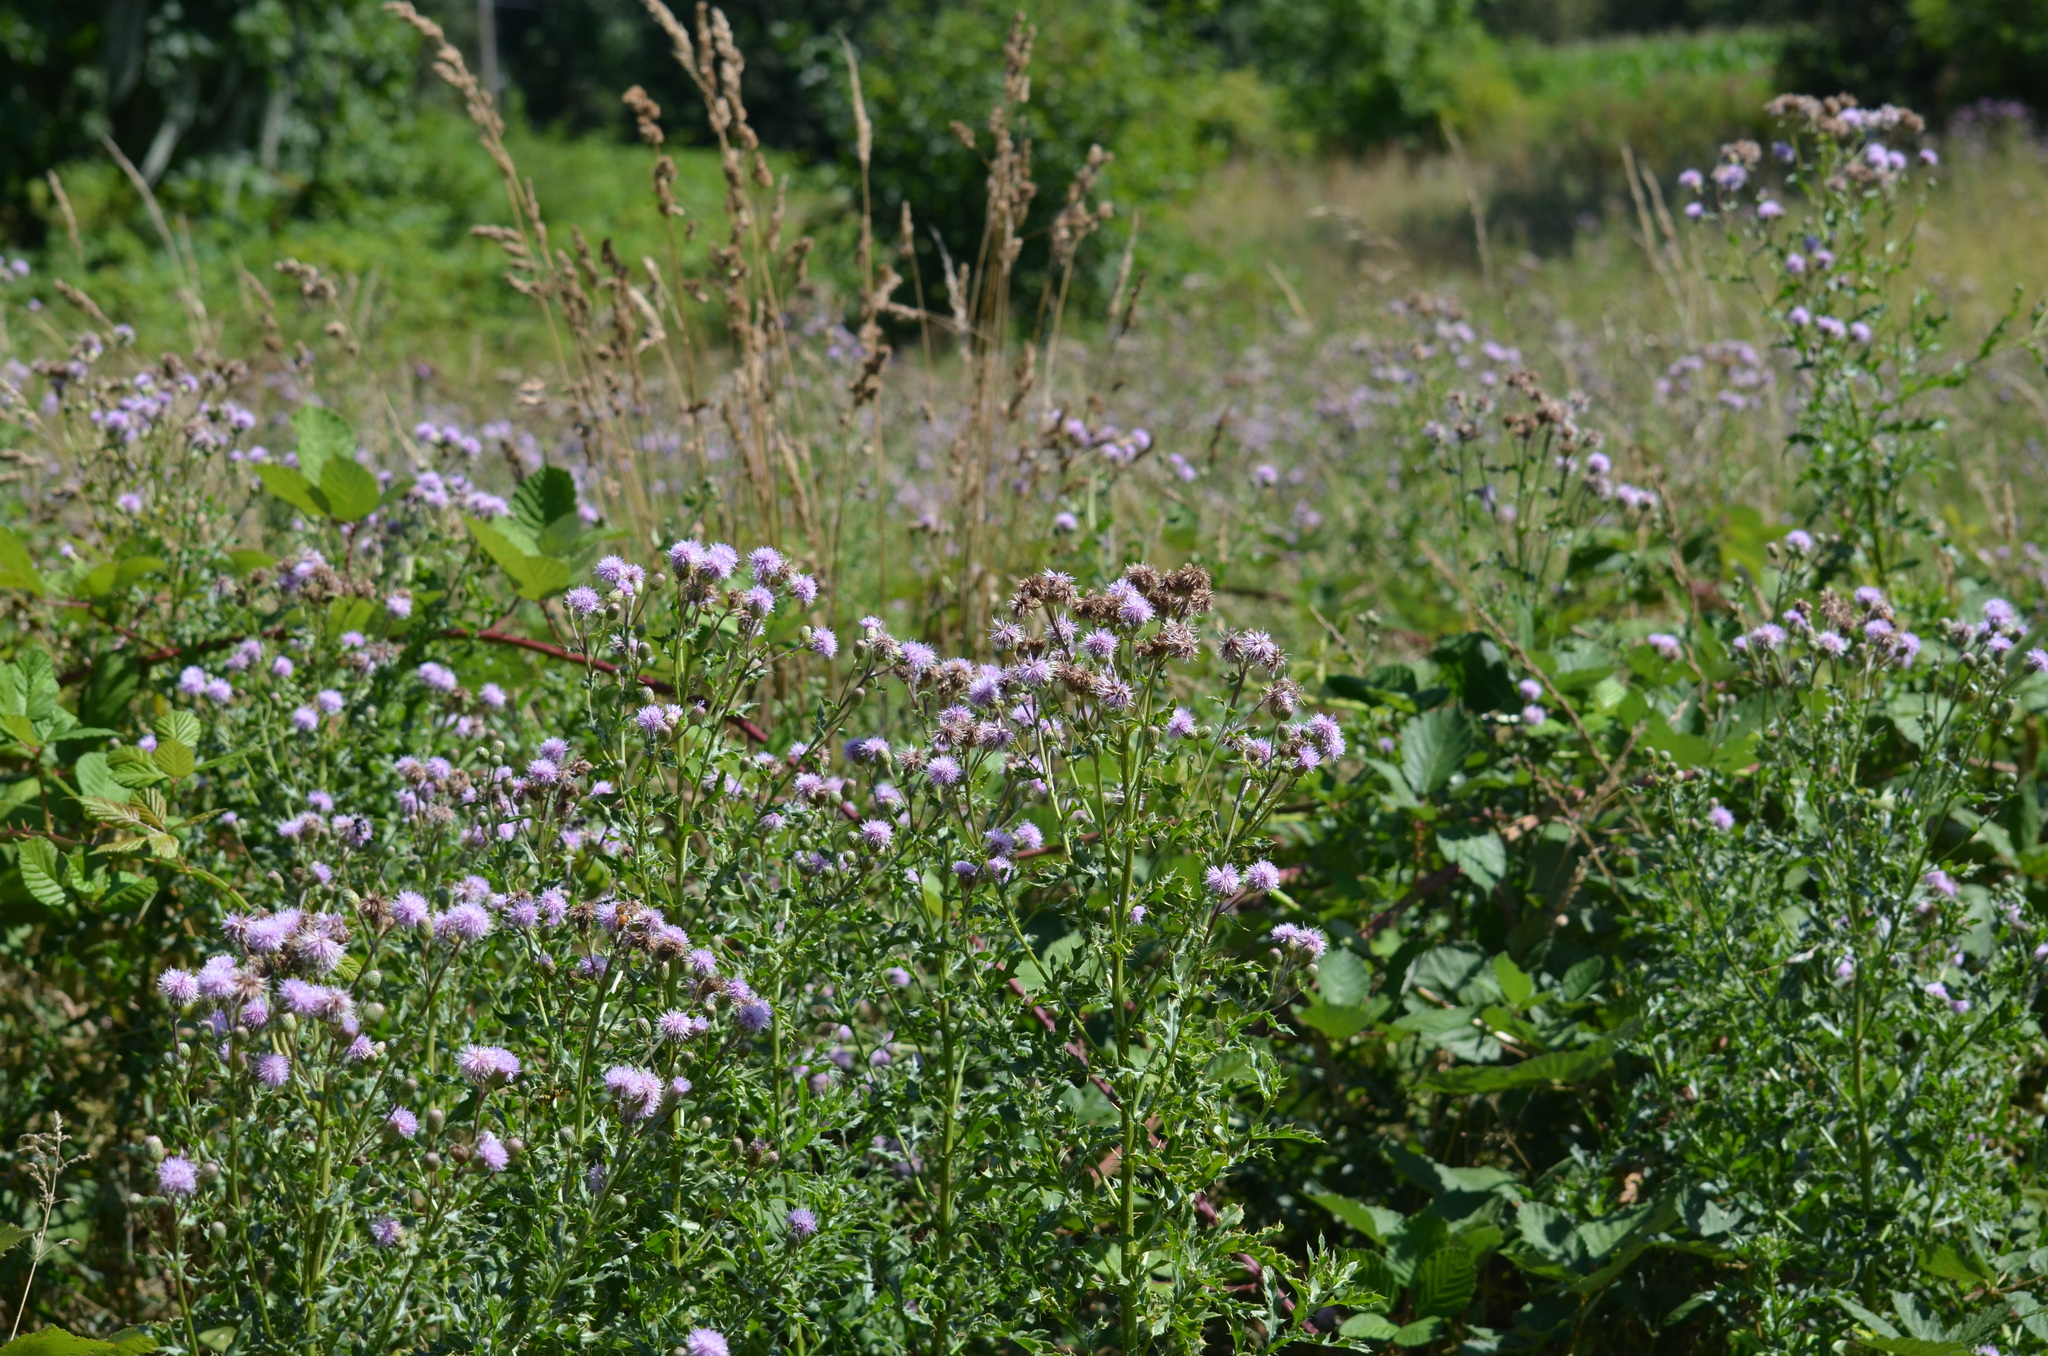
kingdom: Plantae
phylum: Tracheophyta
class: Magnoliopsida
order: Asterales
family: Asteraceae
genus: Cirsium
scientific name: Cirsium arvense
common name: Creeping thistle
